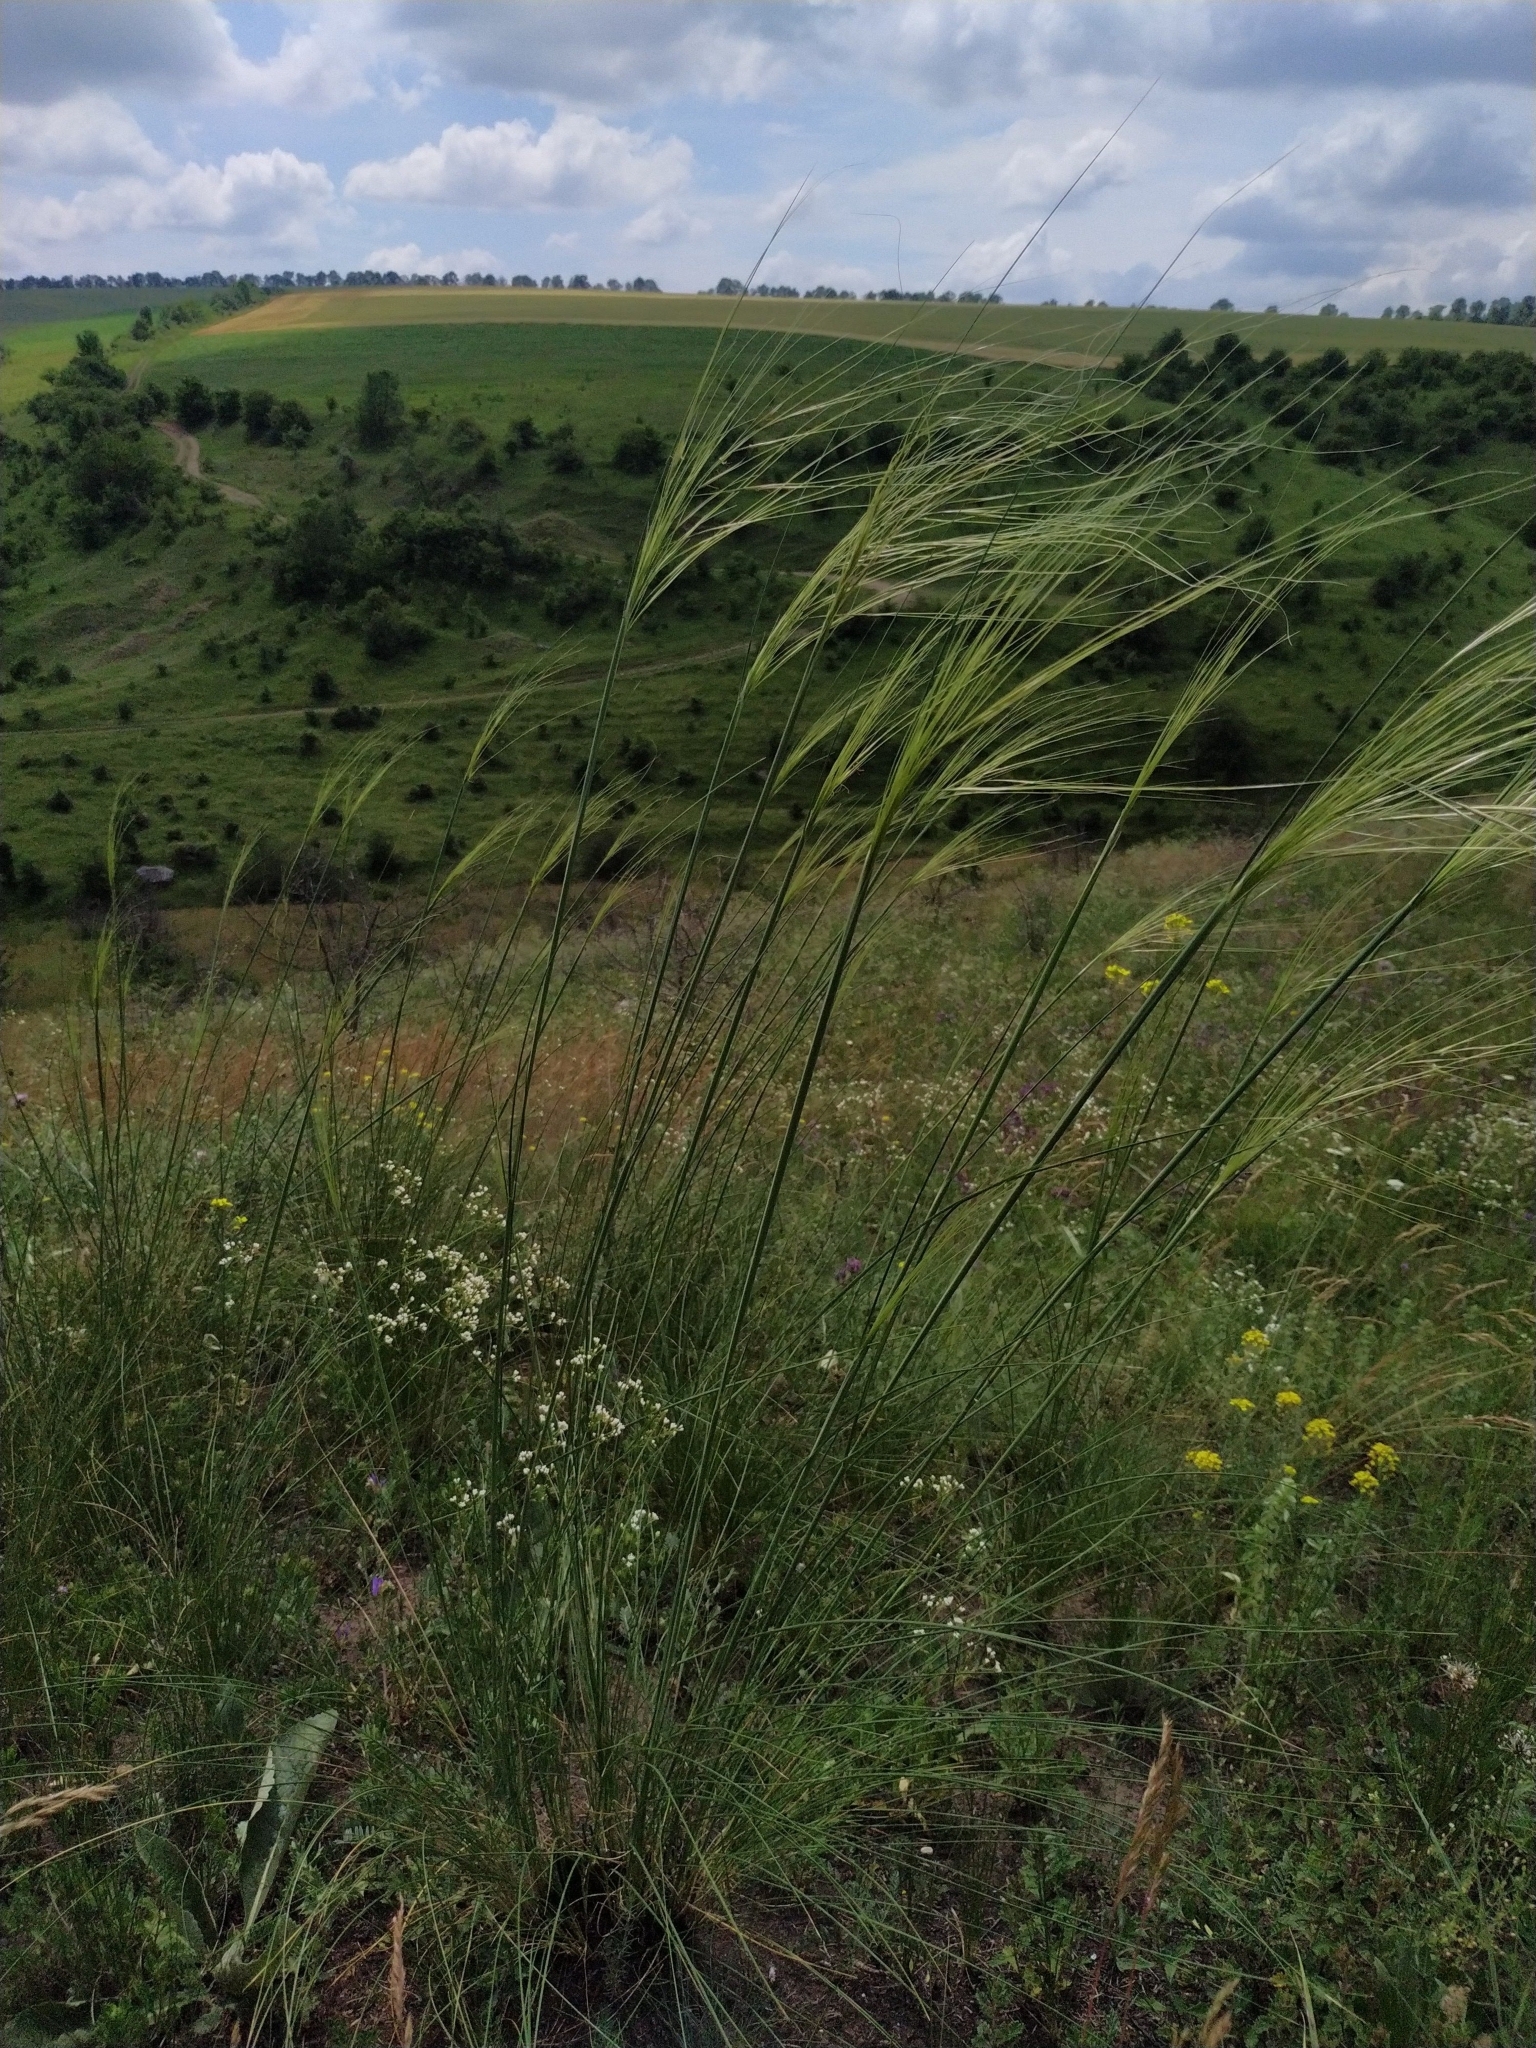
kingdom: Plantae
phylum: Tracheophyta
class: Liliopsida
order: Poales
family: Poaceae
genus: Stipa
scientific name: Stipa capillata
